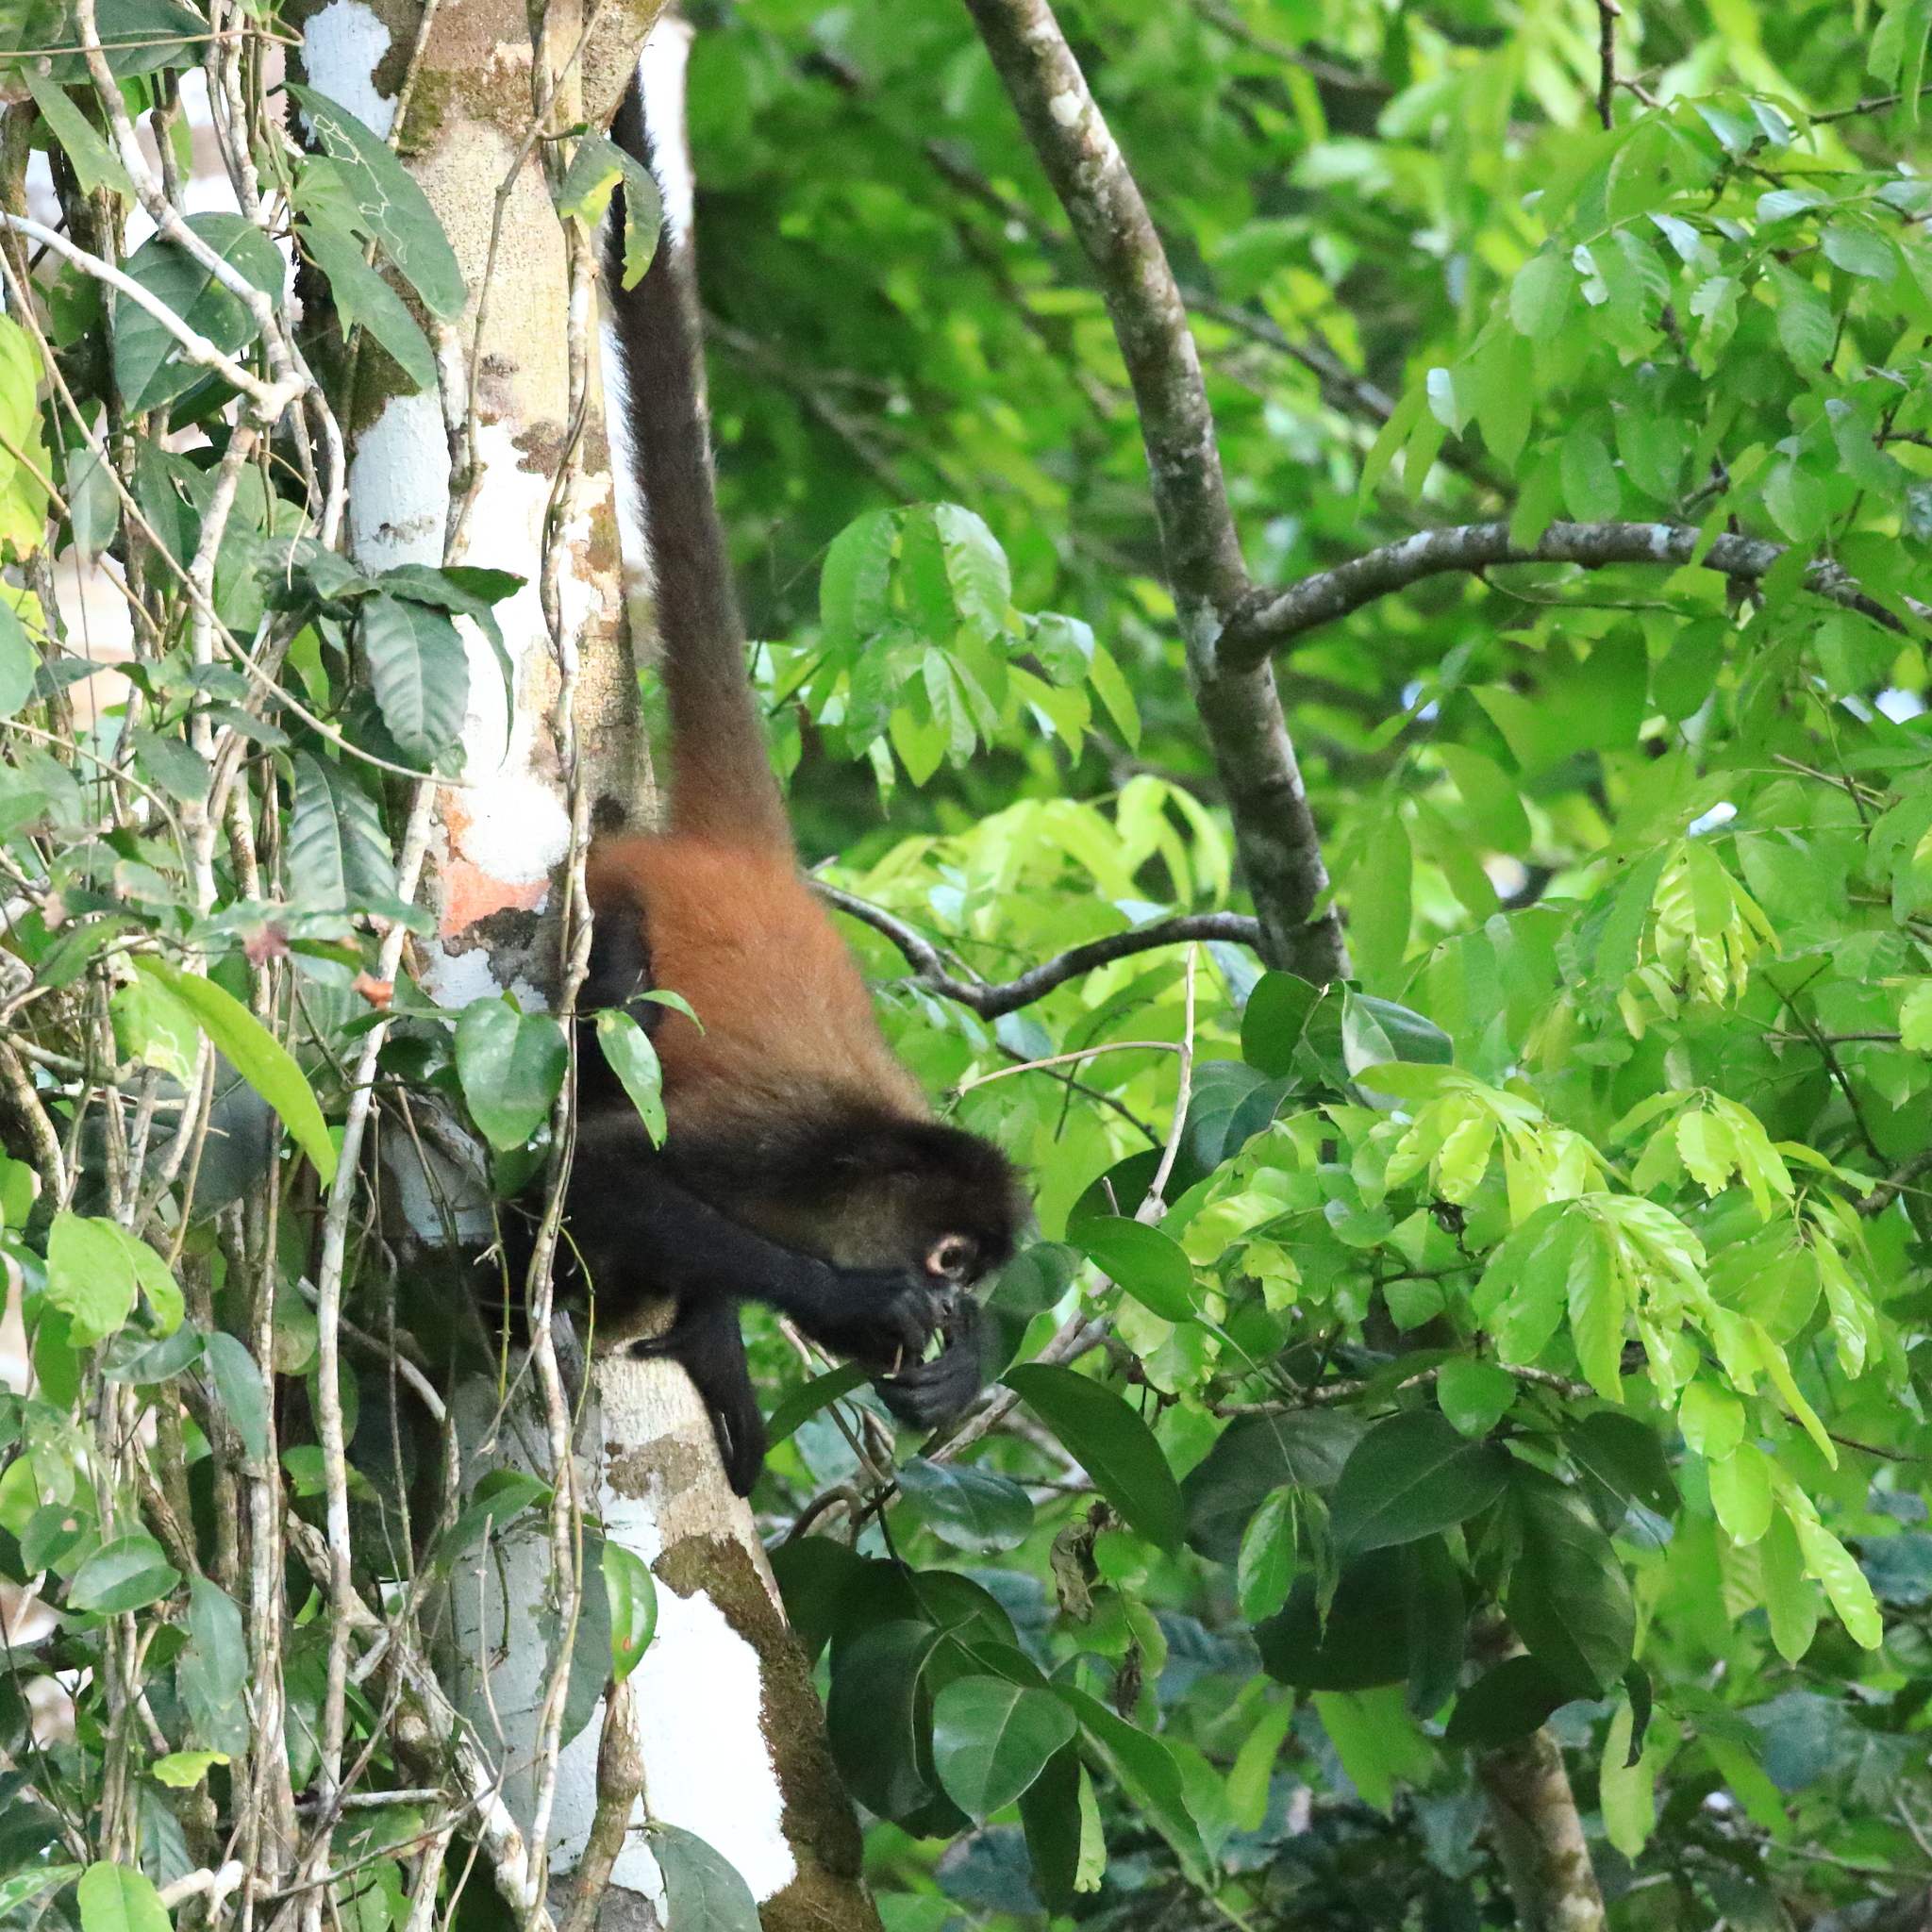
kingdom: Animalia
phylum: Chordata
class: Mammalia
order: Primates
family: Atelidae
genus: Ateles
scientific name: Ateles geoffroyi
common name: Black-handed spider monkey
